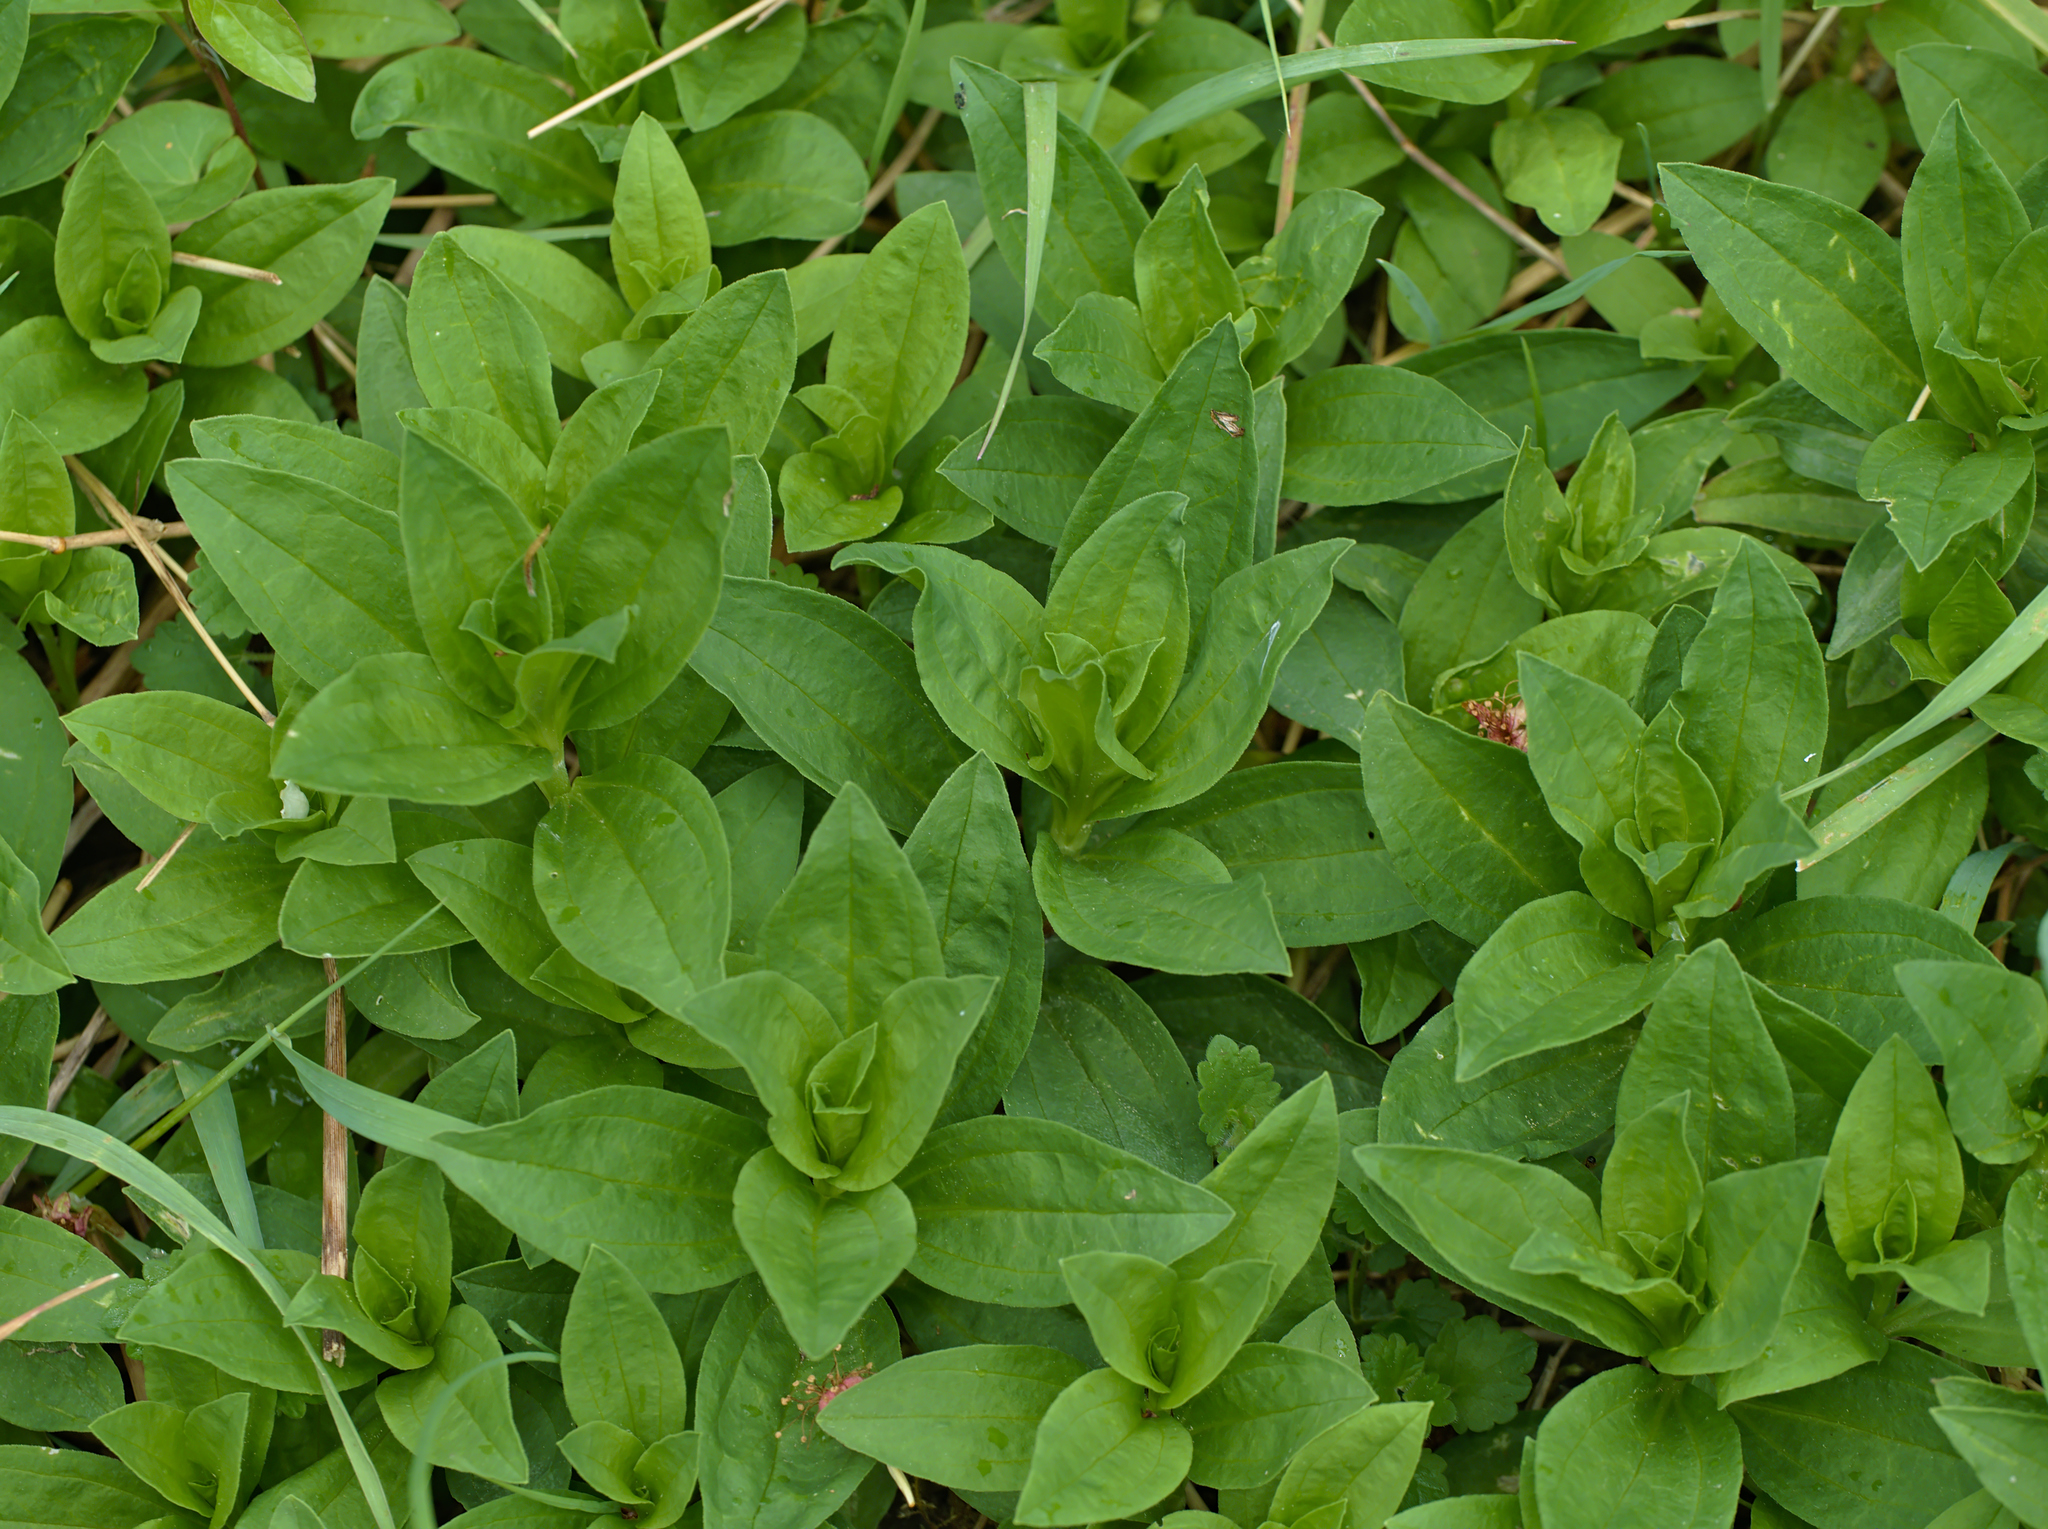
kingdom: Plantae
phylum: Tracheophyta
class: Magnoliopsida
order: Caryophyllales
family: Caryophyllaceae
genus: Saponaria
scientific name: Saponaria officinalis
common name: Soapwort
